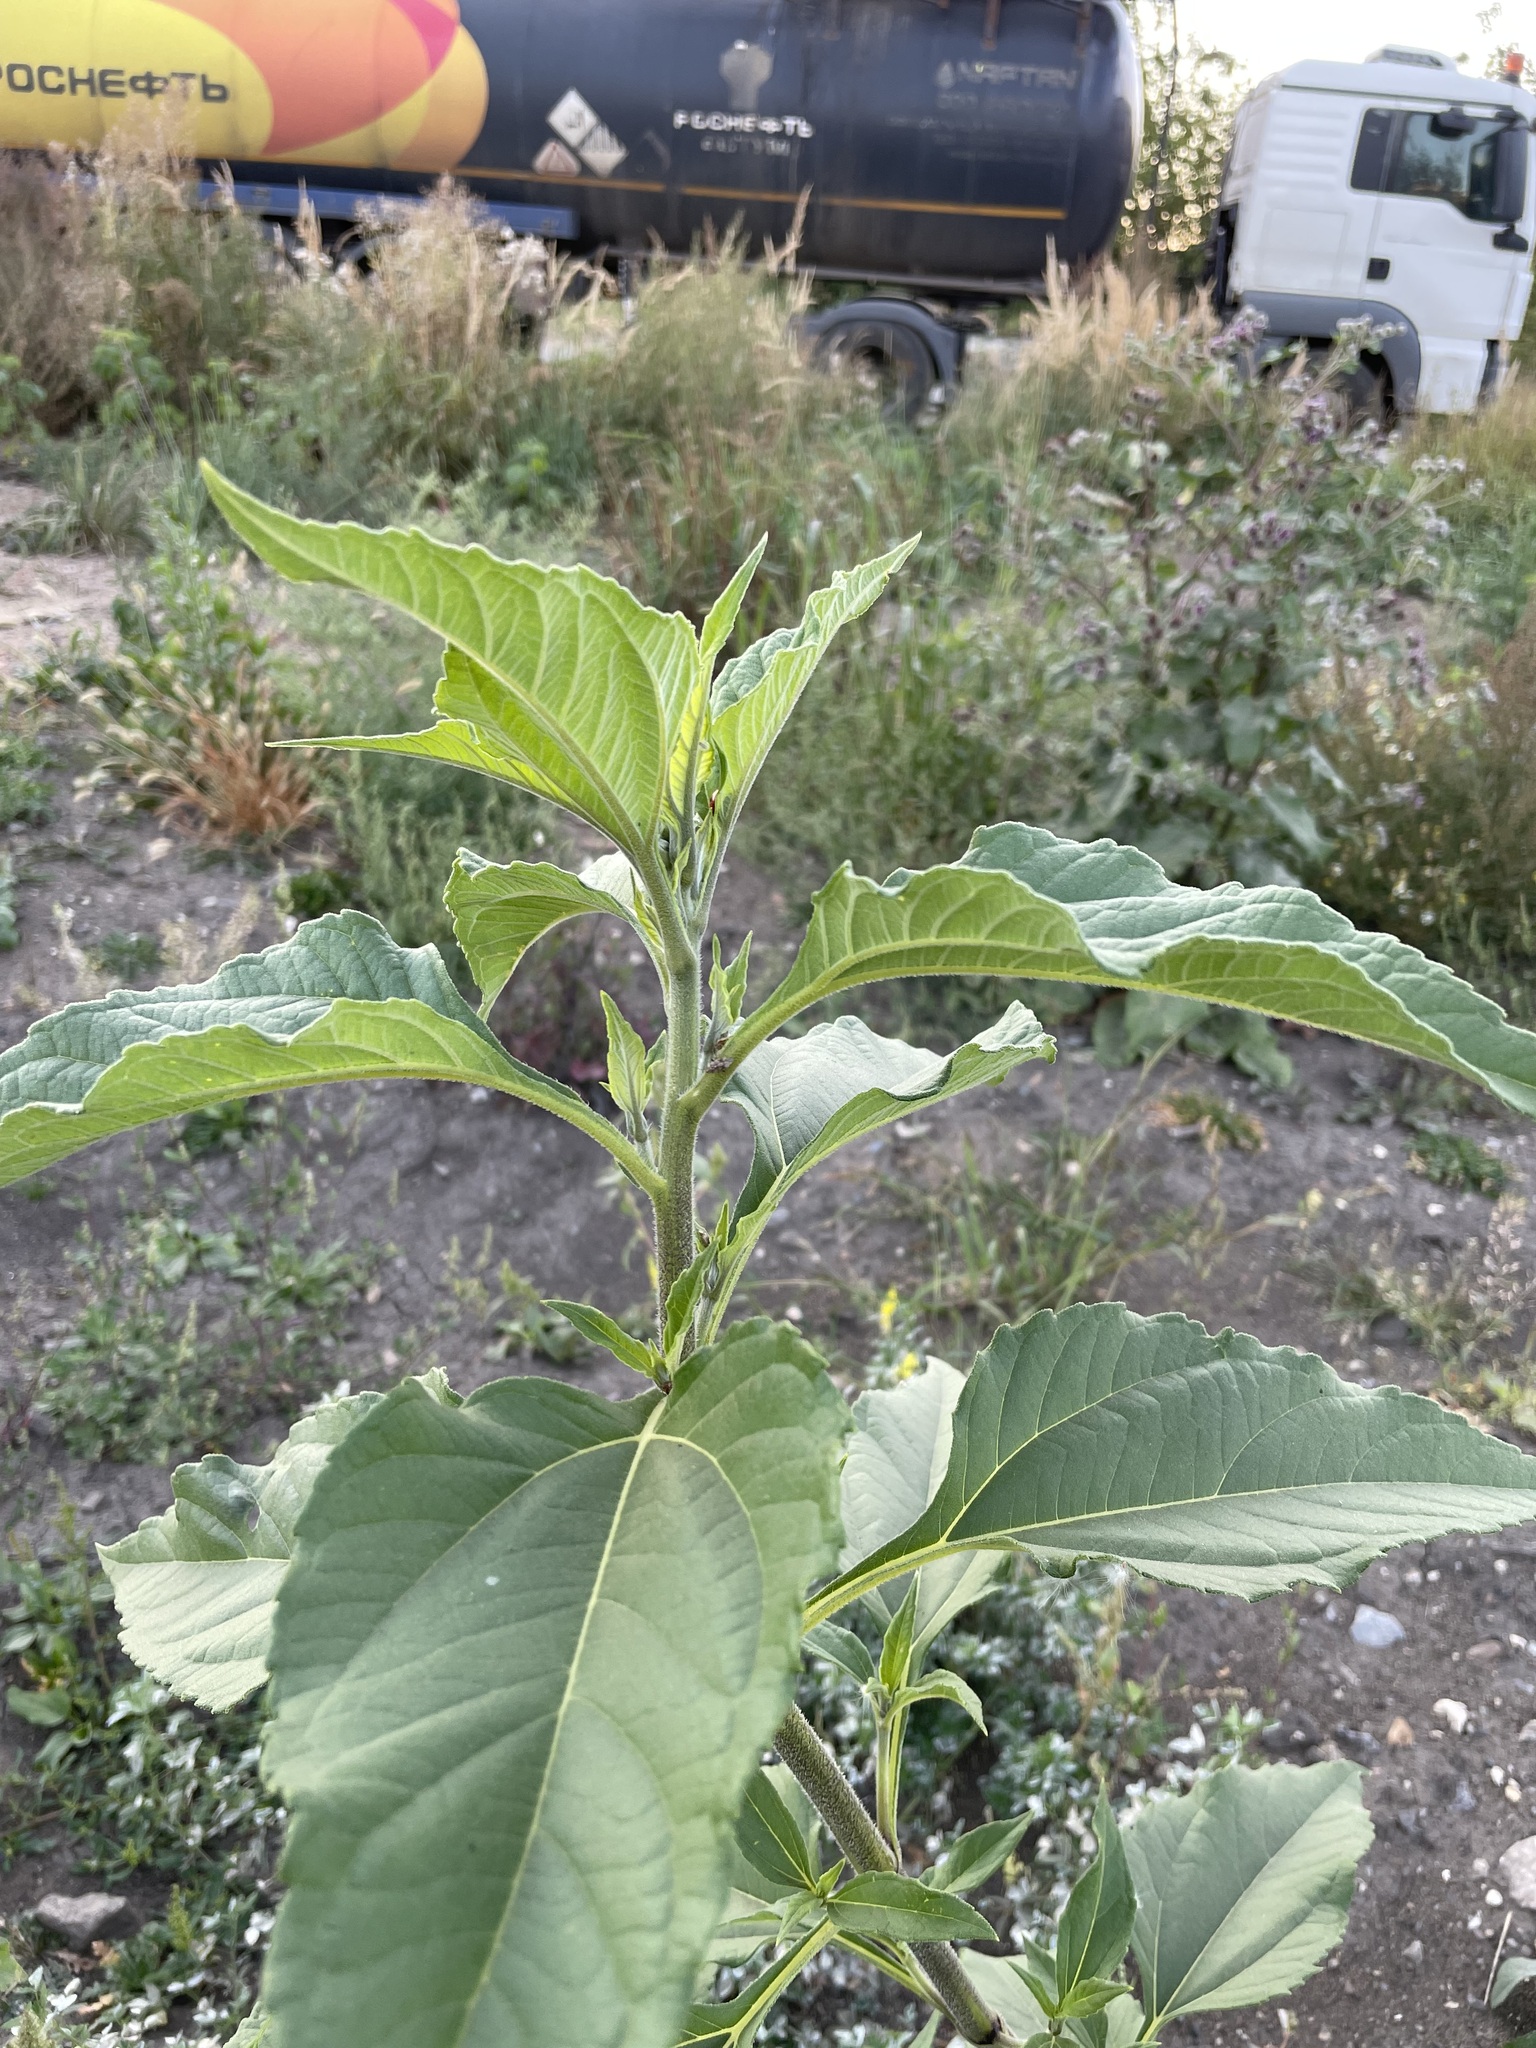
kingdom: Plantae
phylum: Tracheophyta
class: Magnoliopsida
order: Asterales
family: Asteraceae
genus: Helianthus
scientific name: Helianthus tuberosus
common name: Jerusalem artichoke
